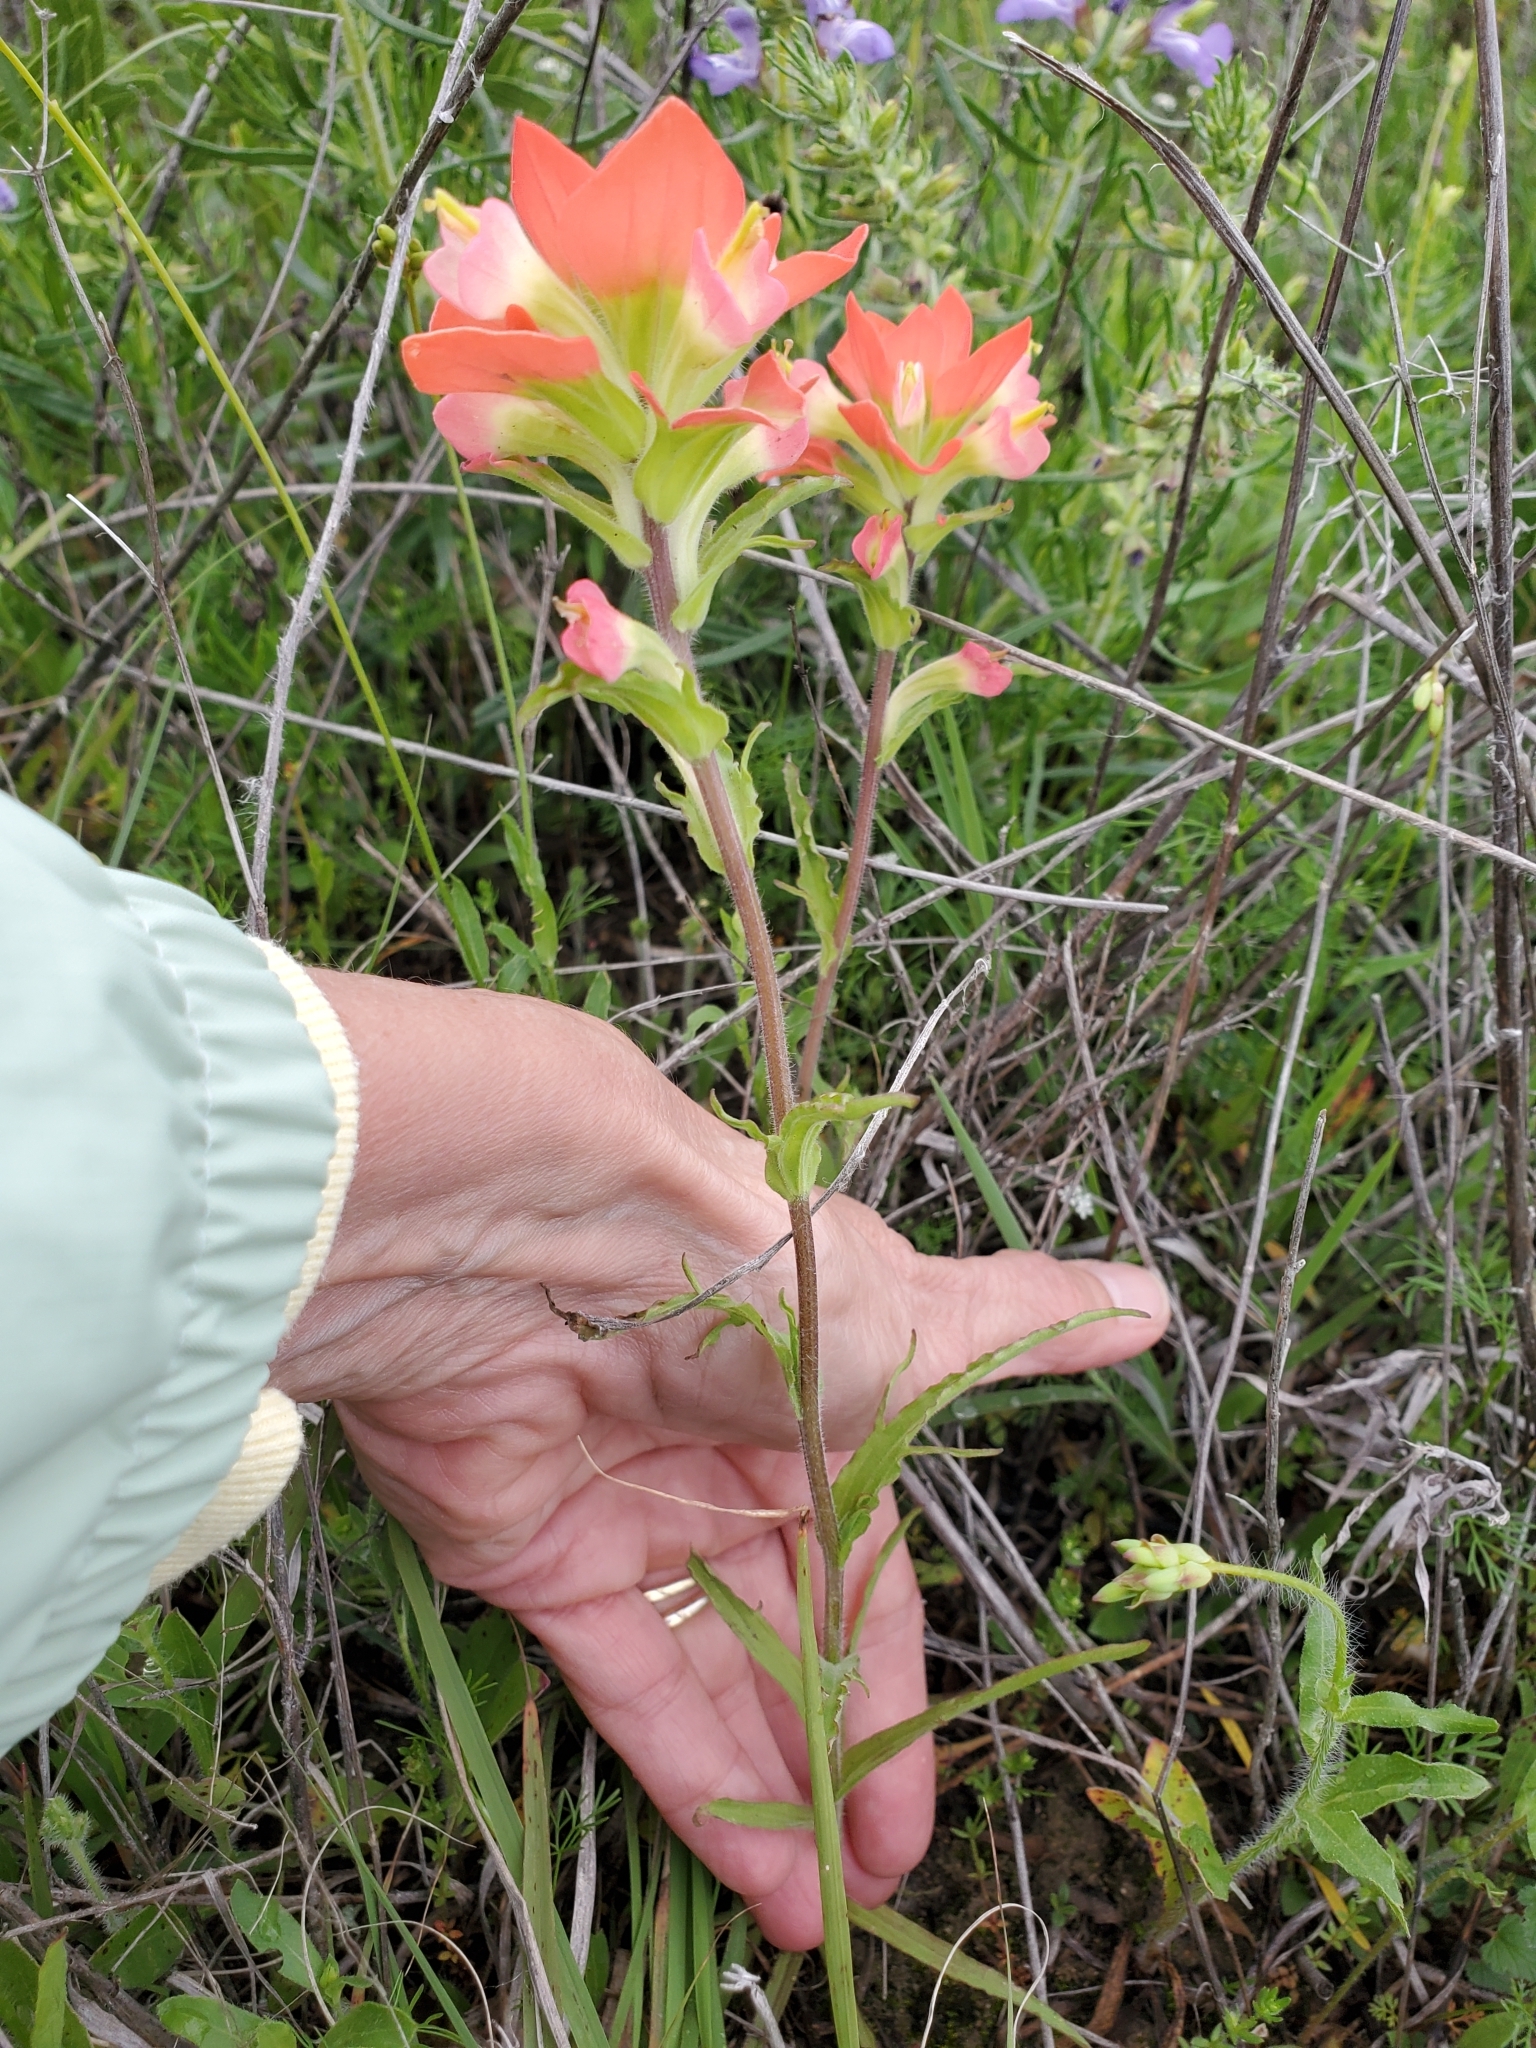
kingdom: Plantae
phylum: Tracheophyta
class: Magnoliopsida
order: Lamiales
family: Orobanchaceae
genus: Castilleja
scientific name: Castilleja indivisa
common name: Texas paintbrush
